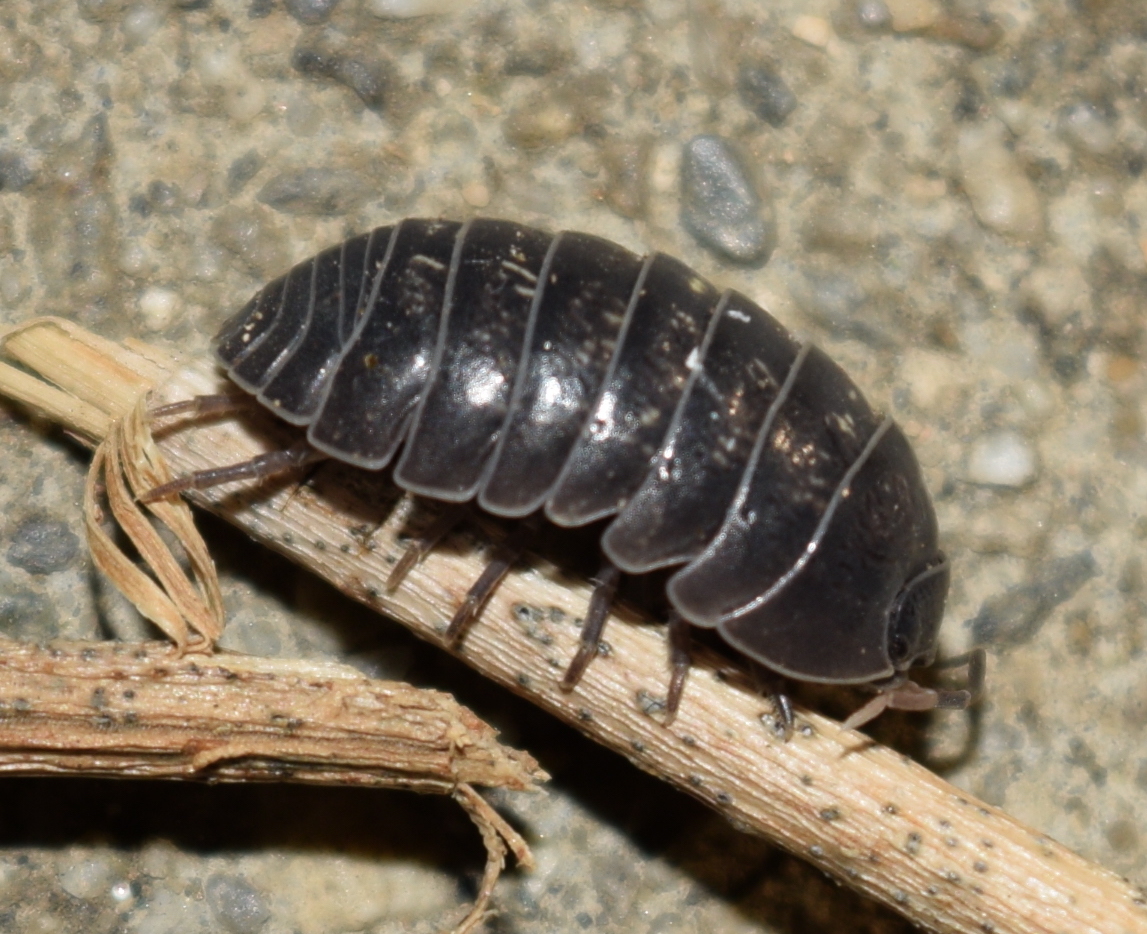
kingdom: Animalia
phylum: Arthropoda
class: Malacostraca
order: Isopoda
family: Armadillidiidae
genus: Armadillidium
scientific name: Armadillidium vulgare
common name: Common pill woodlouse
